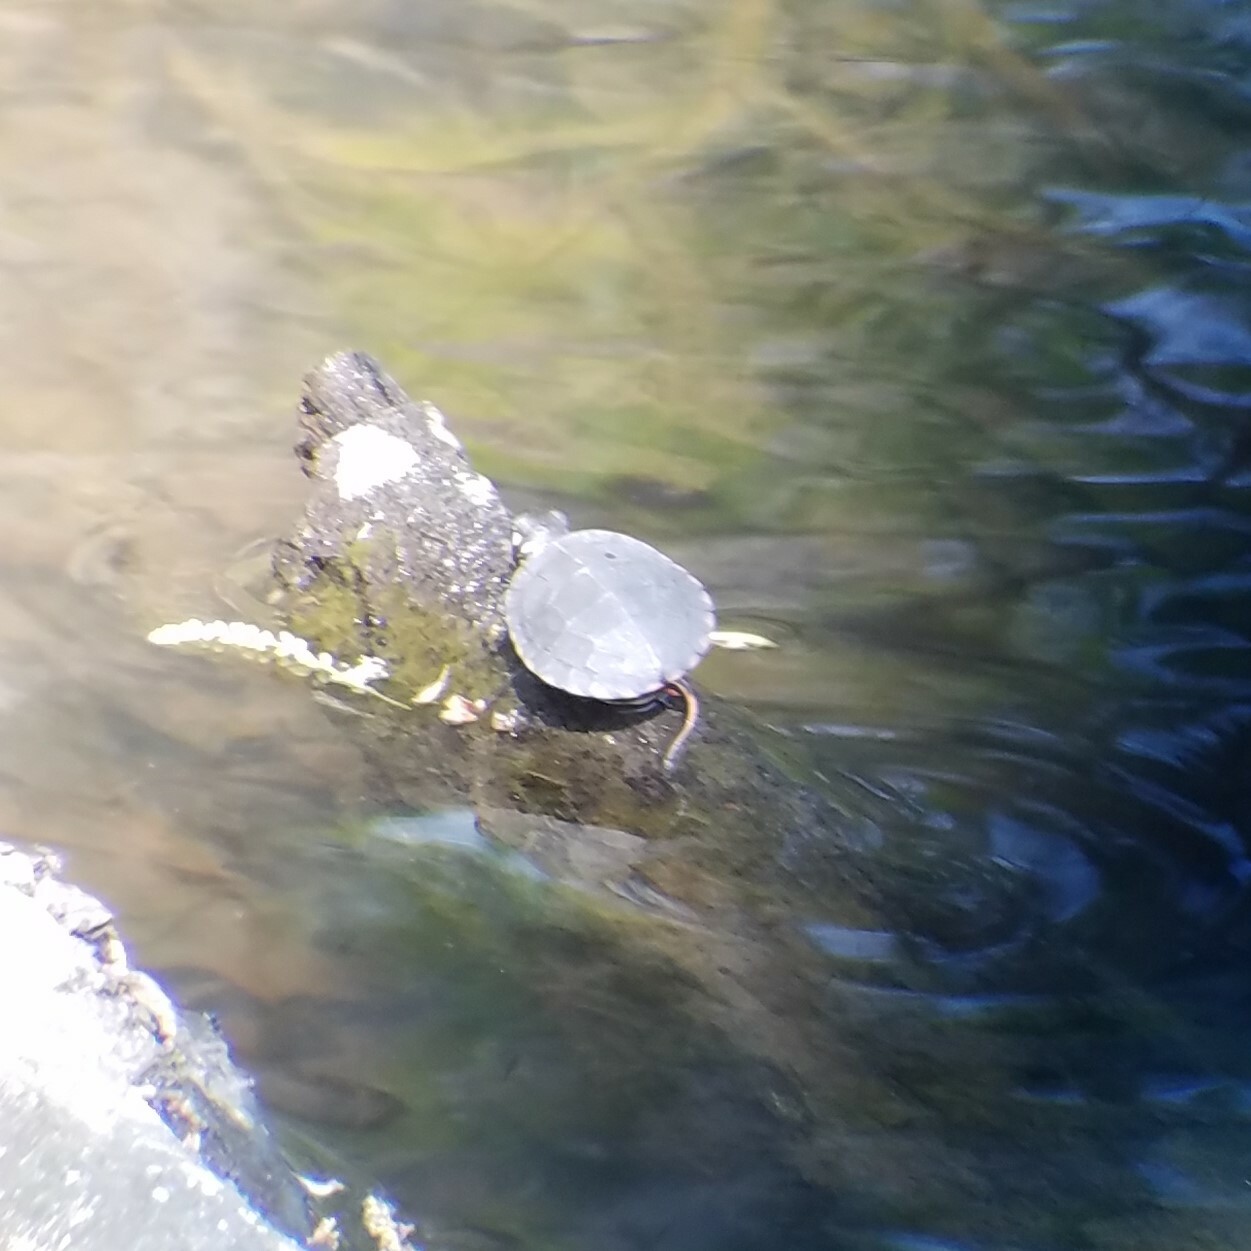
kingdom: Animalia
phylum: Chordata
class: Testudines
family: Emydidae
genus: Chrysemys
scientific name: Chrysemys picta
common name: Painted turtle
